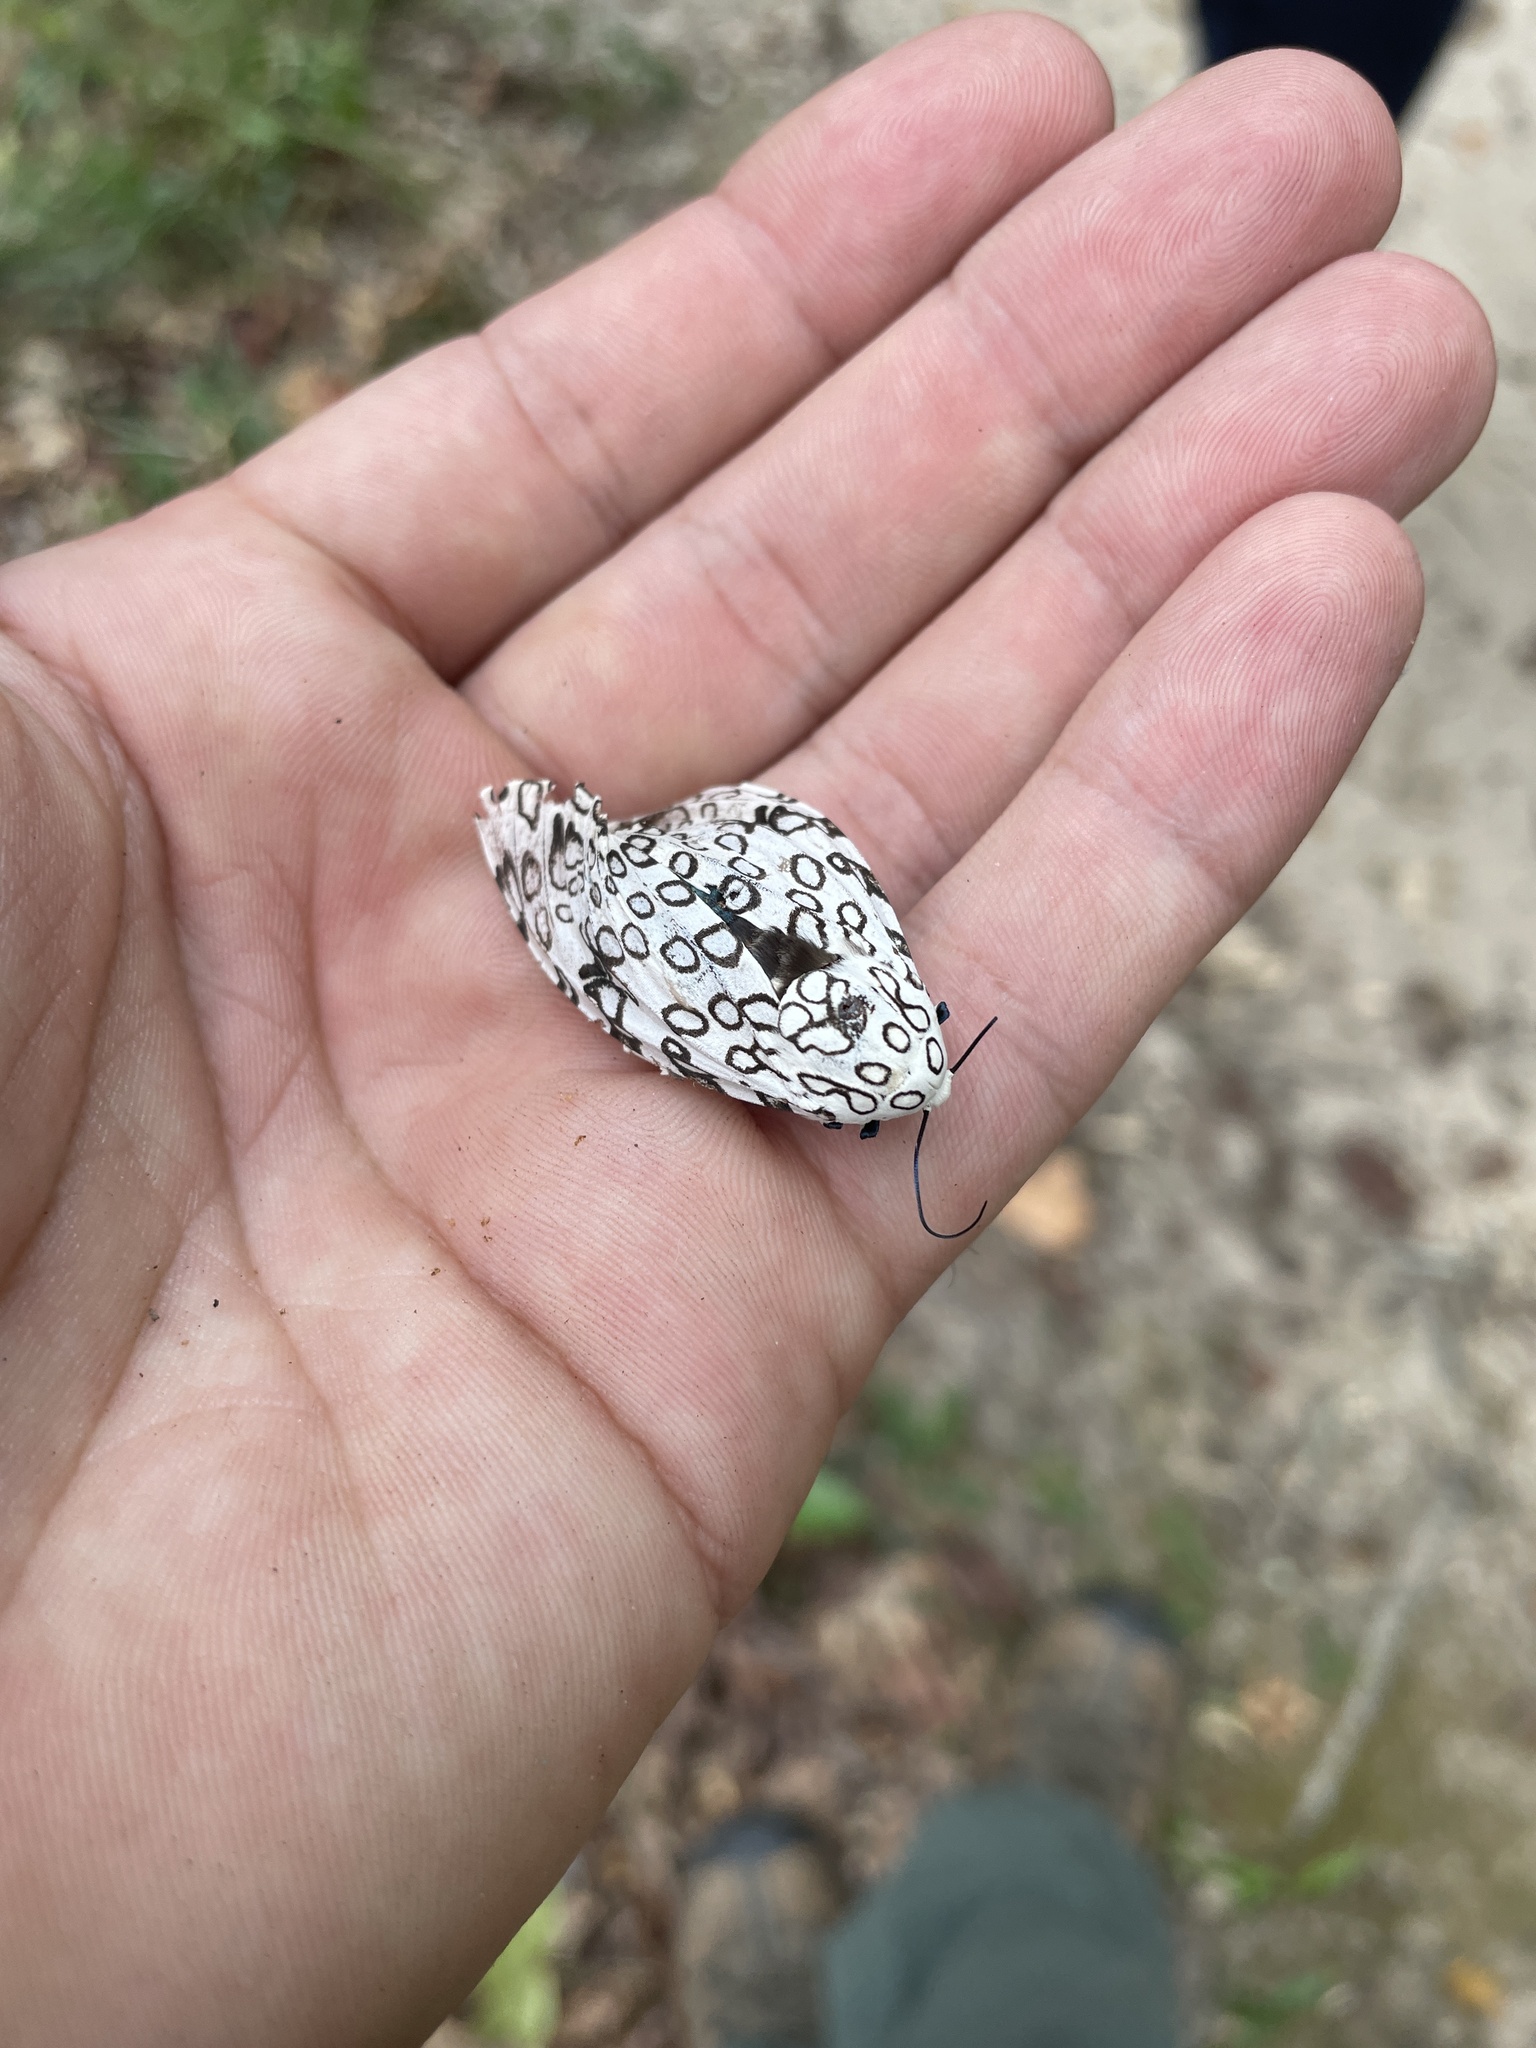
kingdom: Animalia
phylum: Arthropoda
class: Insecta
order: Lepidoptera
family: Erebidae
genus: Hypercompe
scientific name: Hypercompe scribonia
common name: Giant leopard moth
